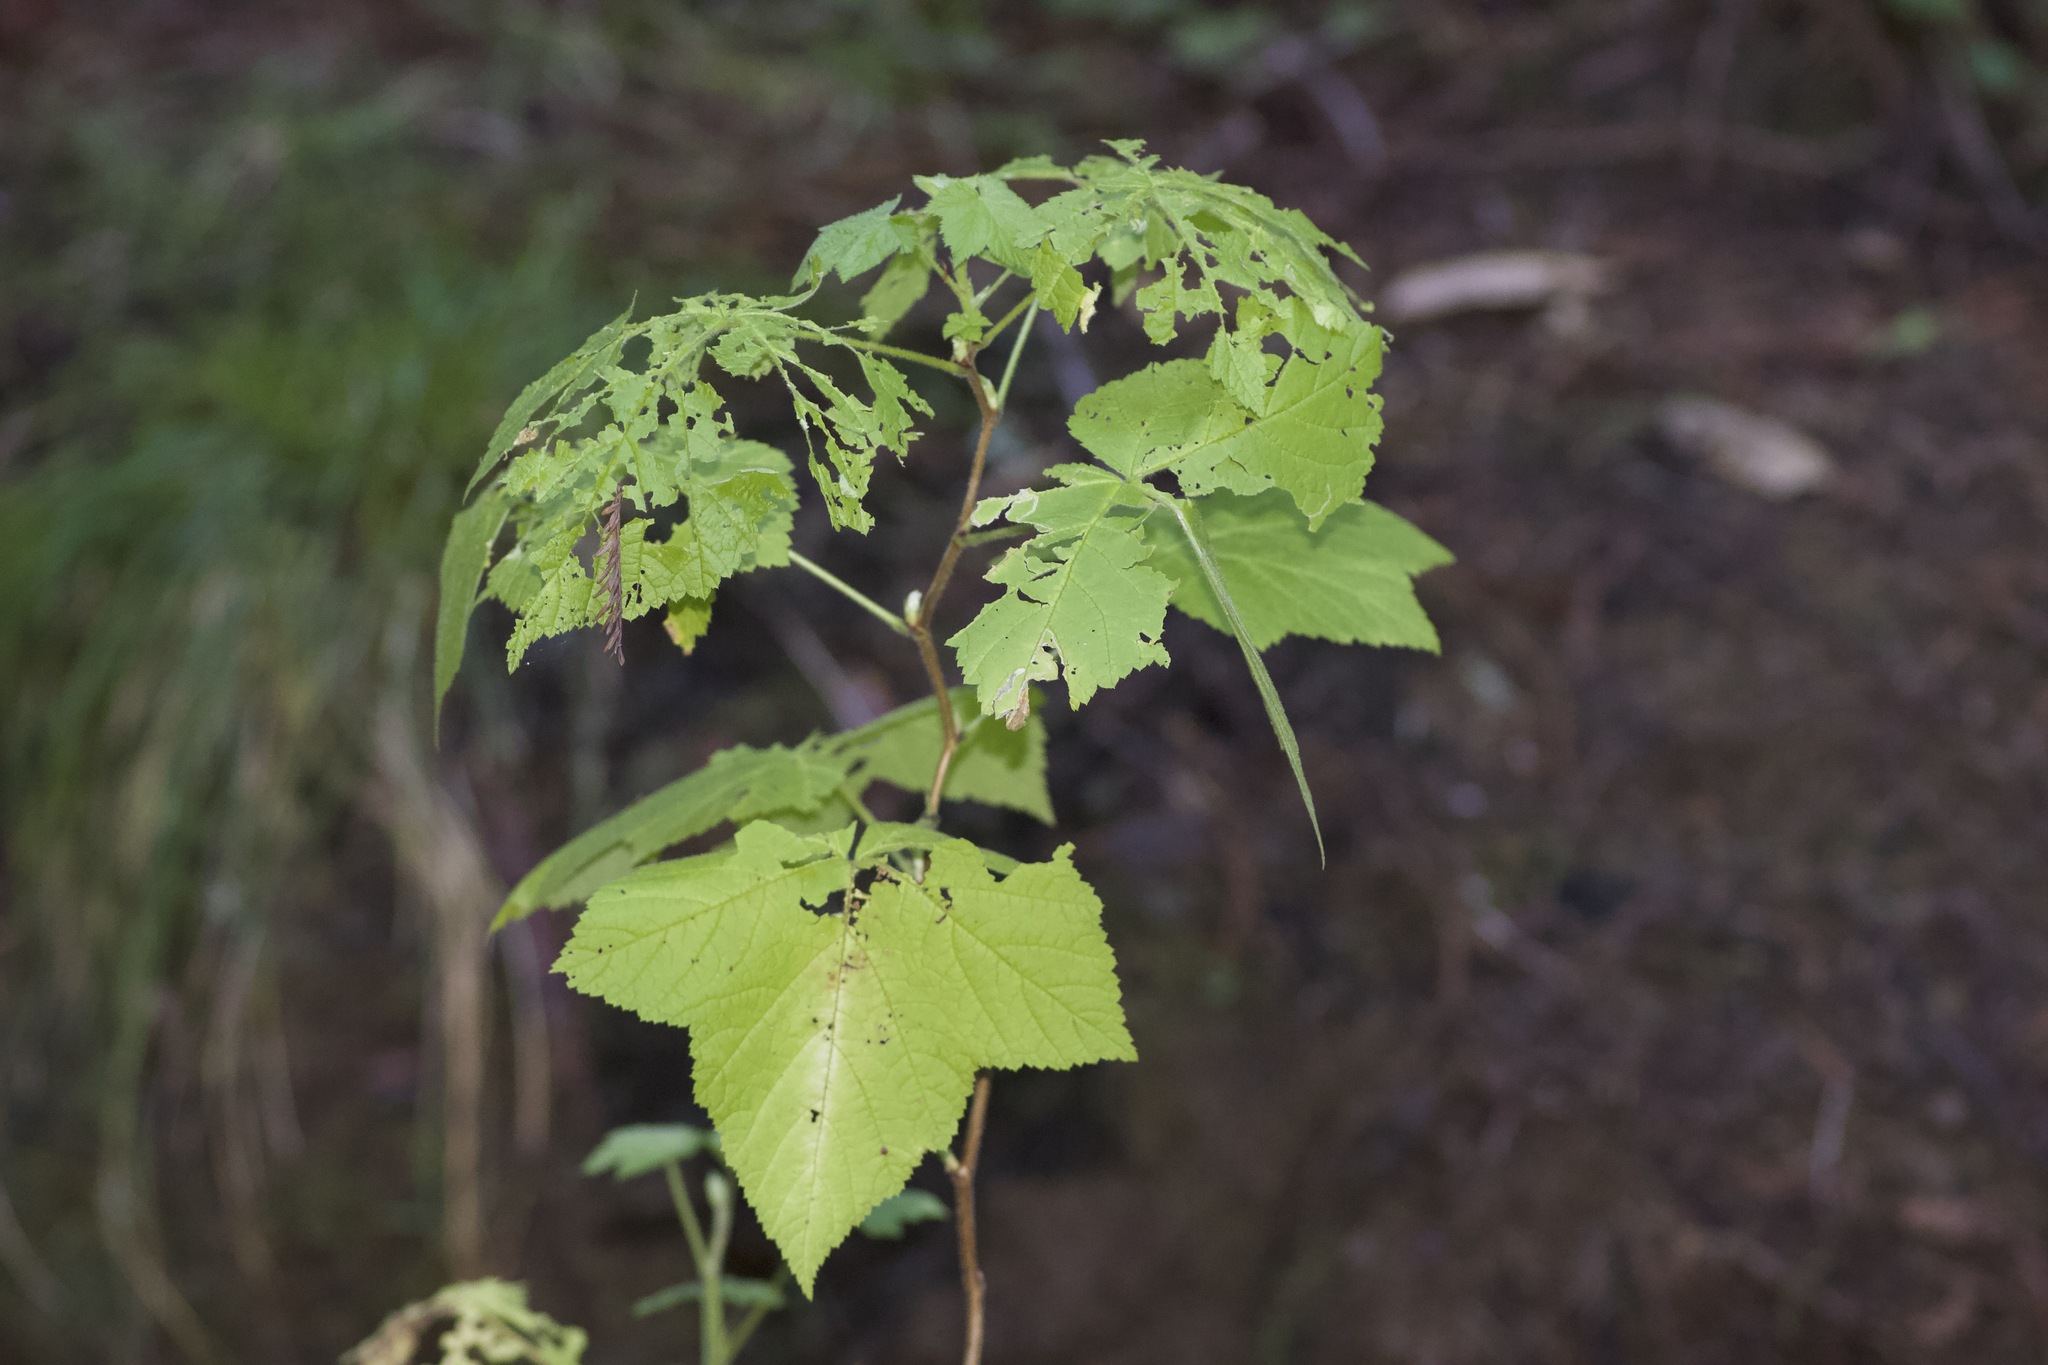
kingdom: Plantae
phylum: Tracheophyta
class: Magnoliopsida
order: Rosales
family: Rosaceae
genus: Rubus
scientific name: Rubus parviflorus
